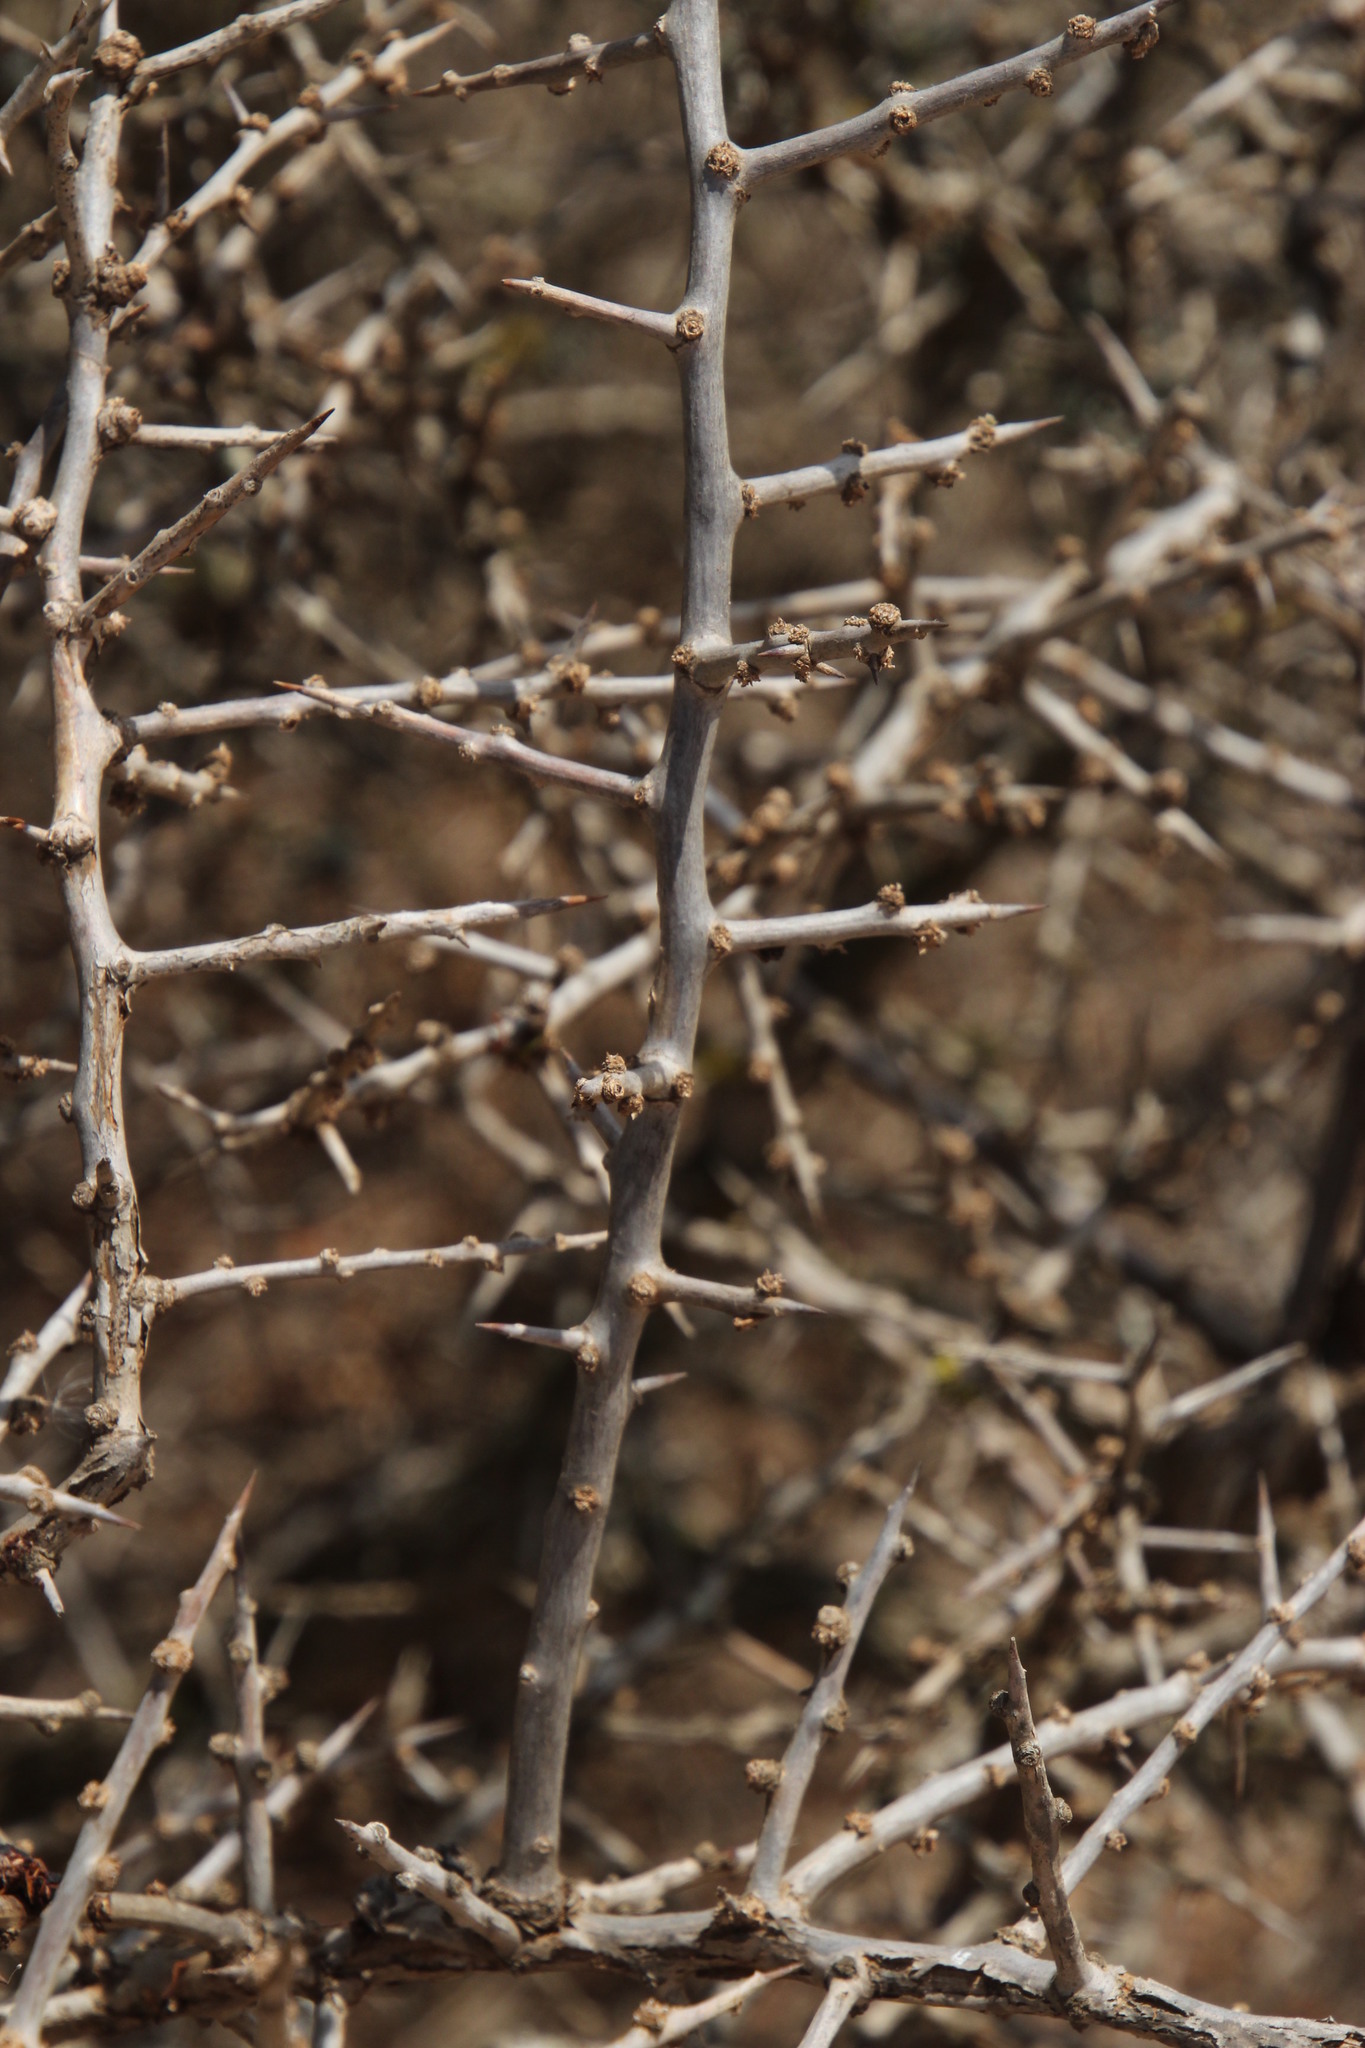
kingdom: Plantae
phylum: Tracheophyta
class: Magnoliopsida
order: Solanales
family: Solanaceae
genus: Lycium
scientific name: Lycium ferocissimum
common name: African boxthorn
